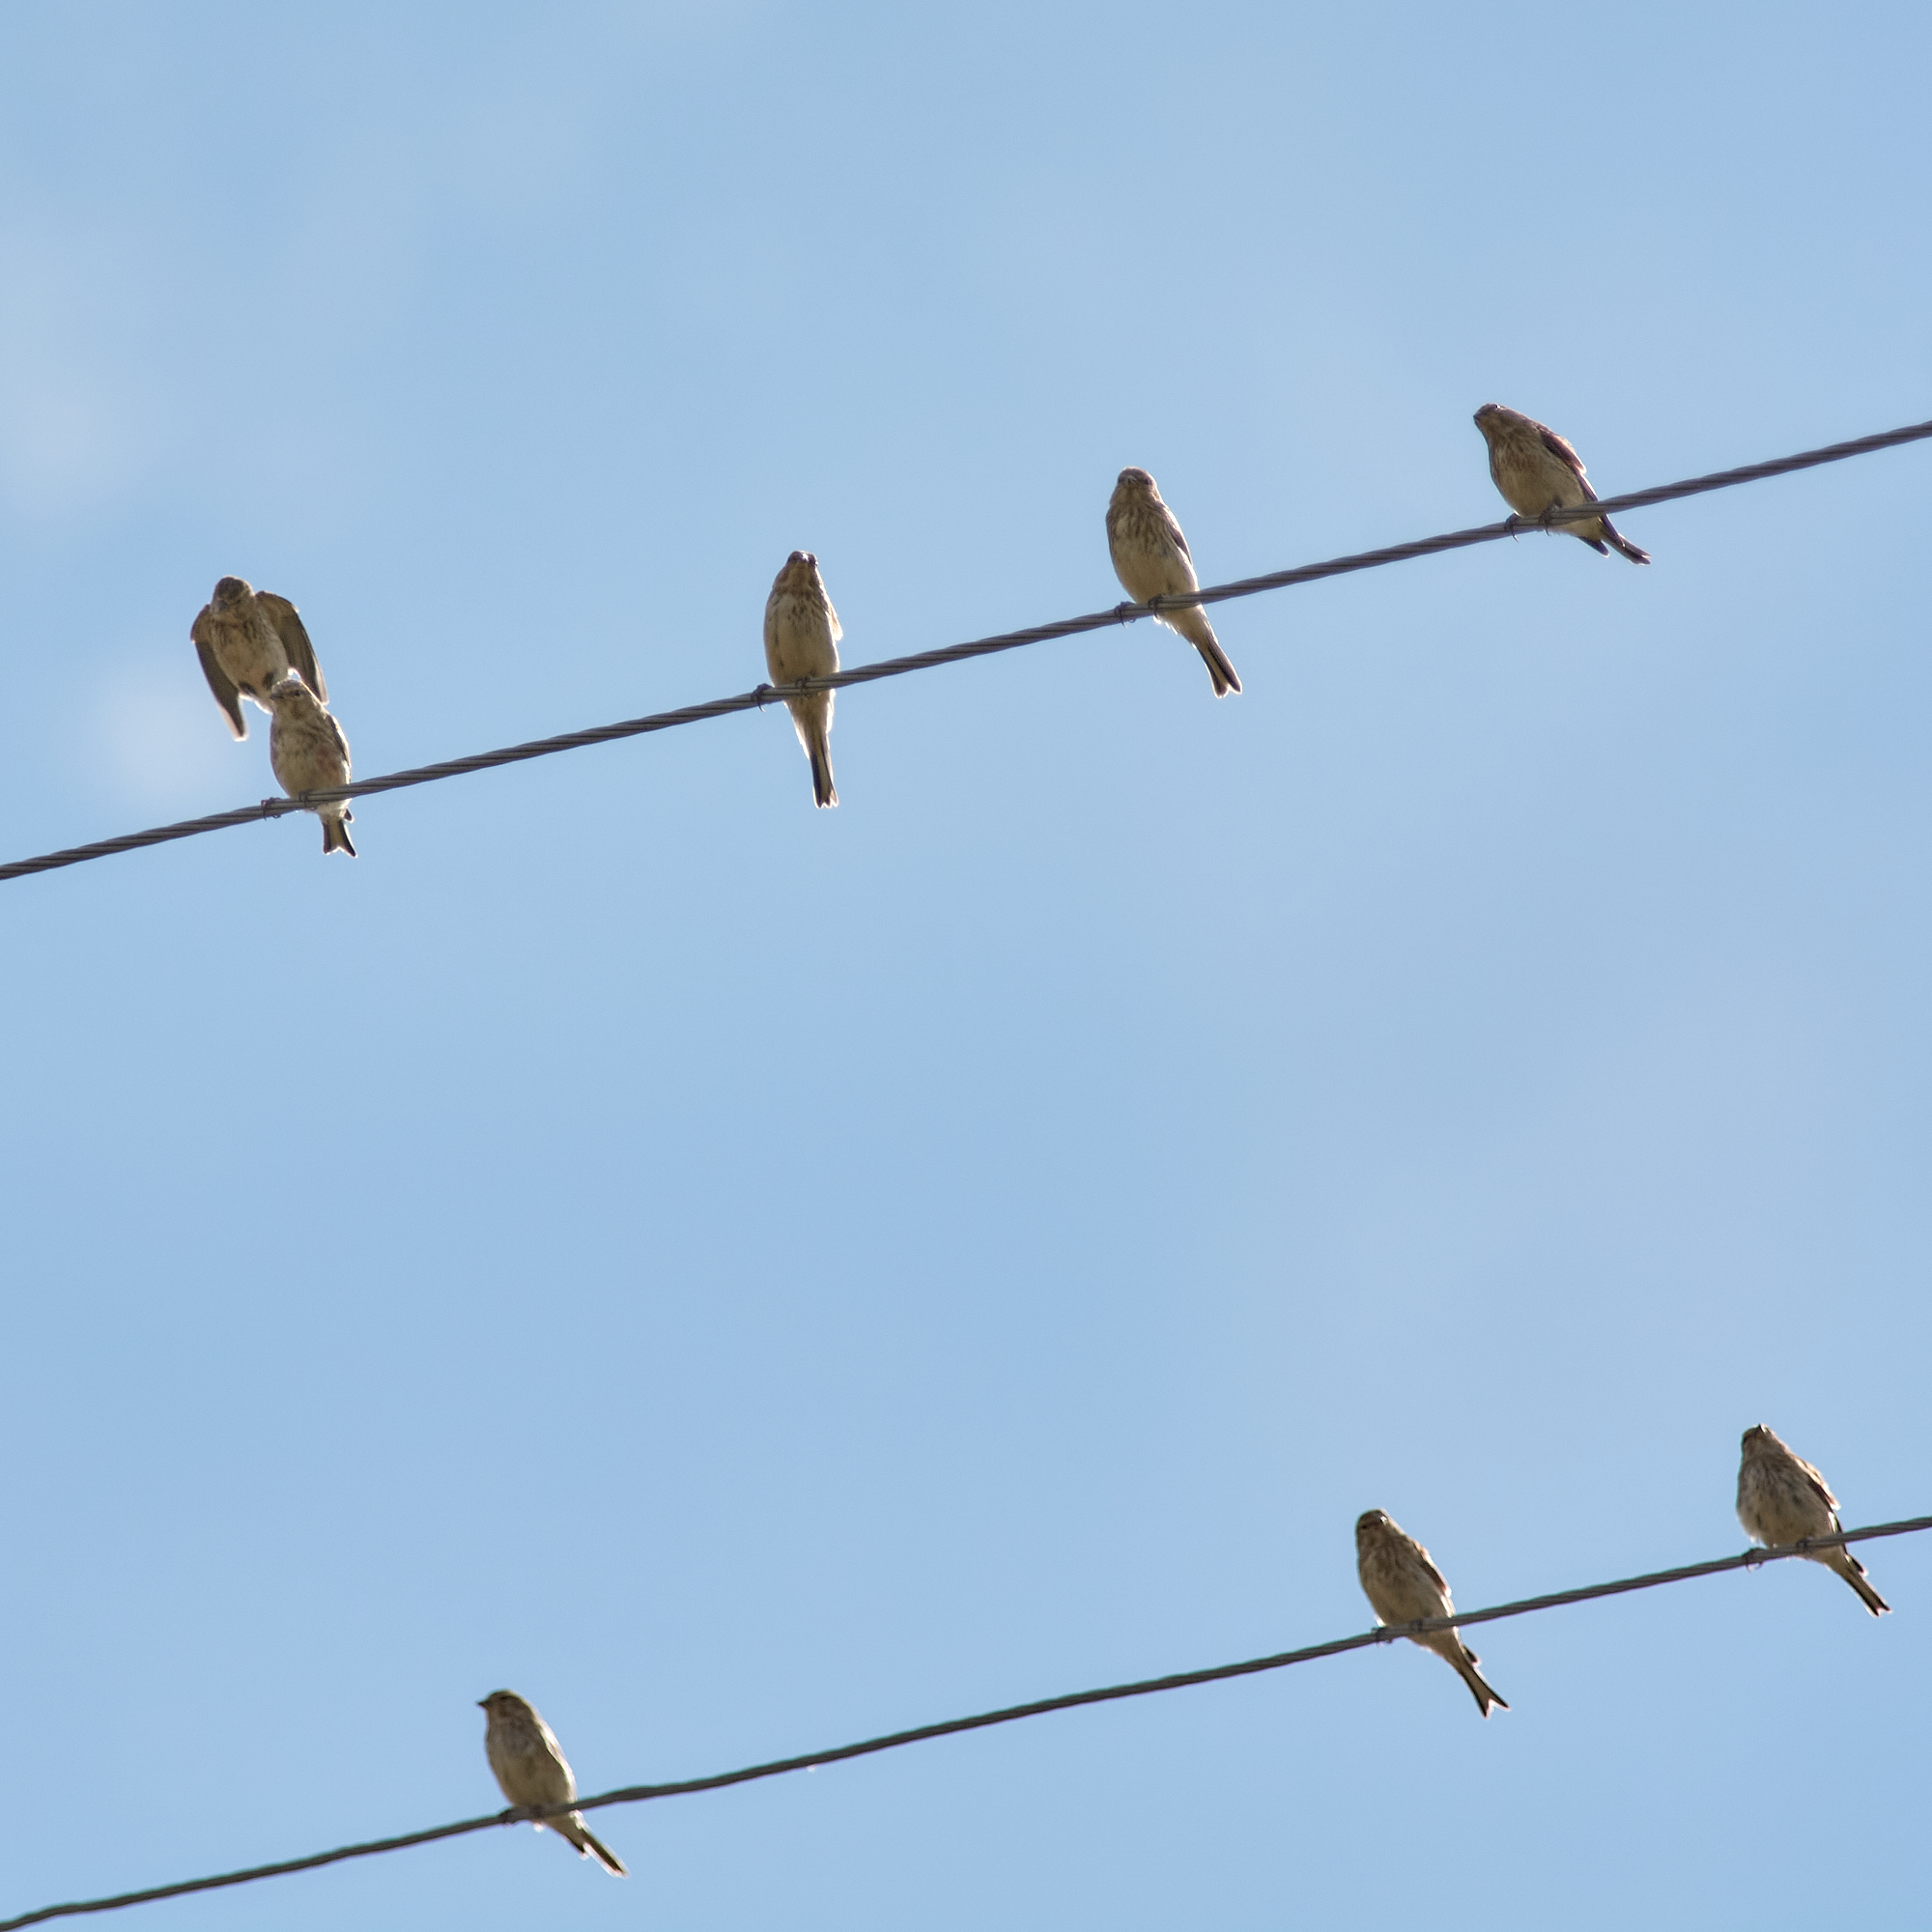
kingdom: Animalia
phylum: Chordata
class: Aves
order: Passeriformes
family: Fringillidae
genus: Linaria
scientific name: Linaria cannabina
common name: Common linnet
